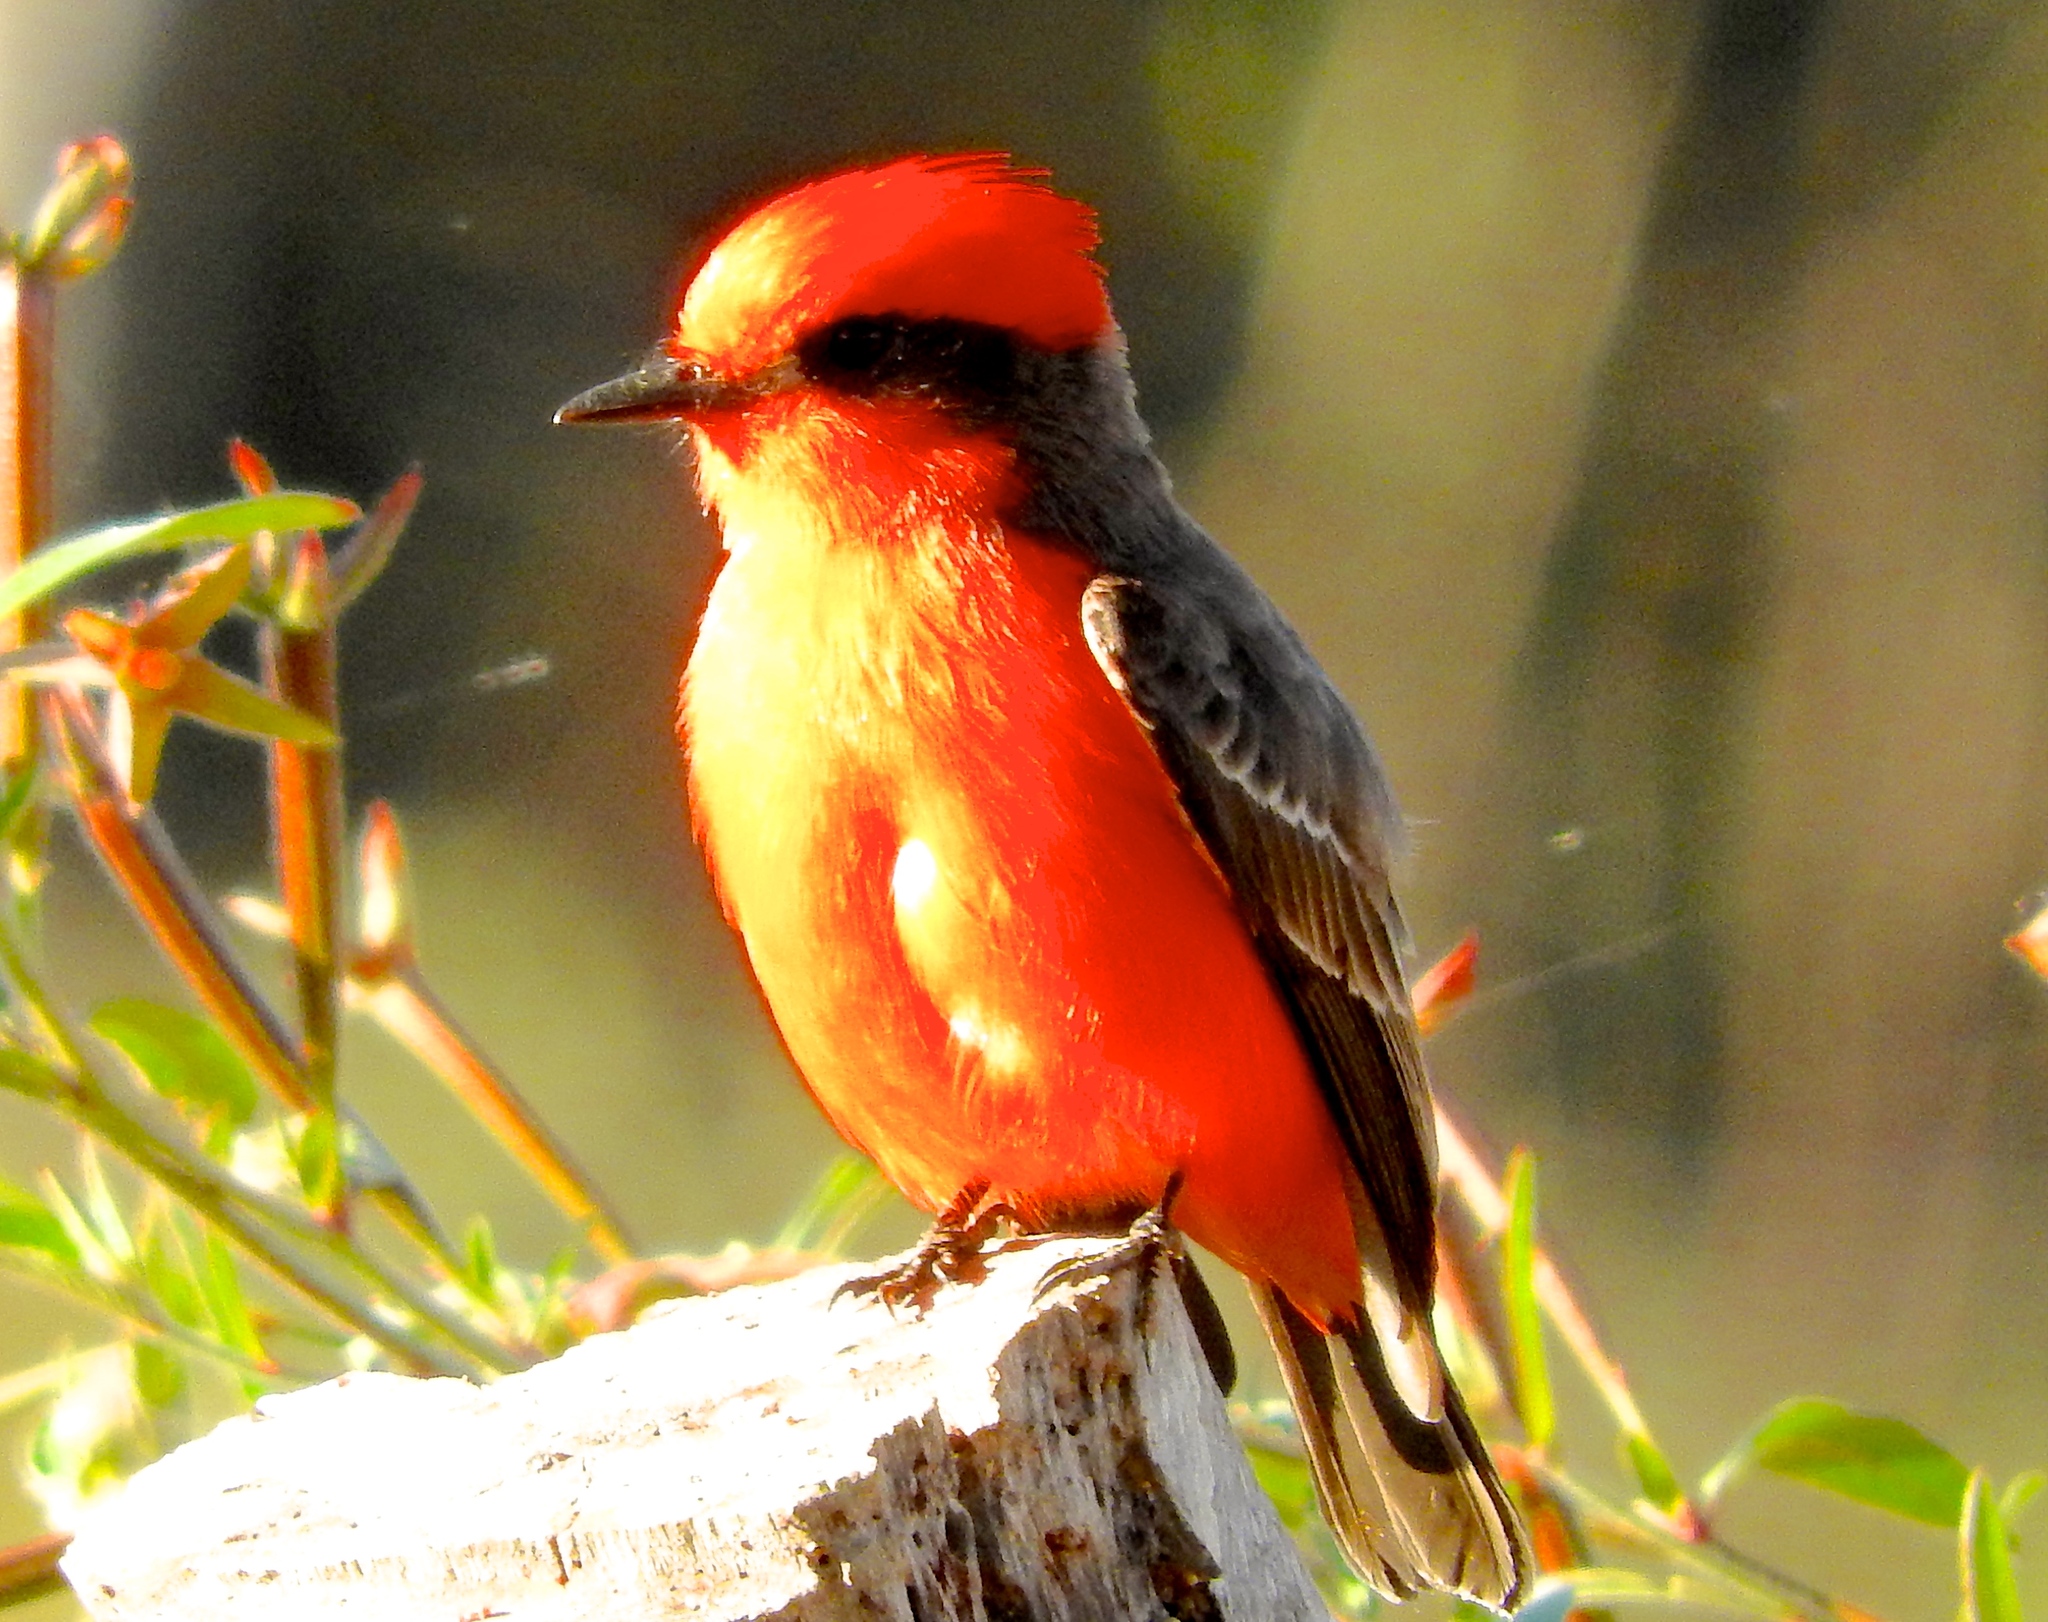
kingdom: Animalia
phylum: Chordata
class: Aves
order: Passeriformes
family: Tyrannidae
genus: Pyrocephalus
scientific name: Pyrocephalus rubinus
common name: Vermilion flycatcher
